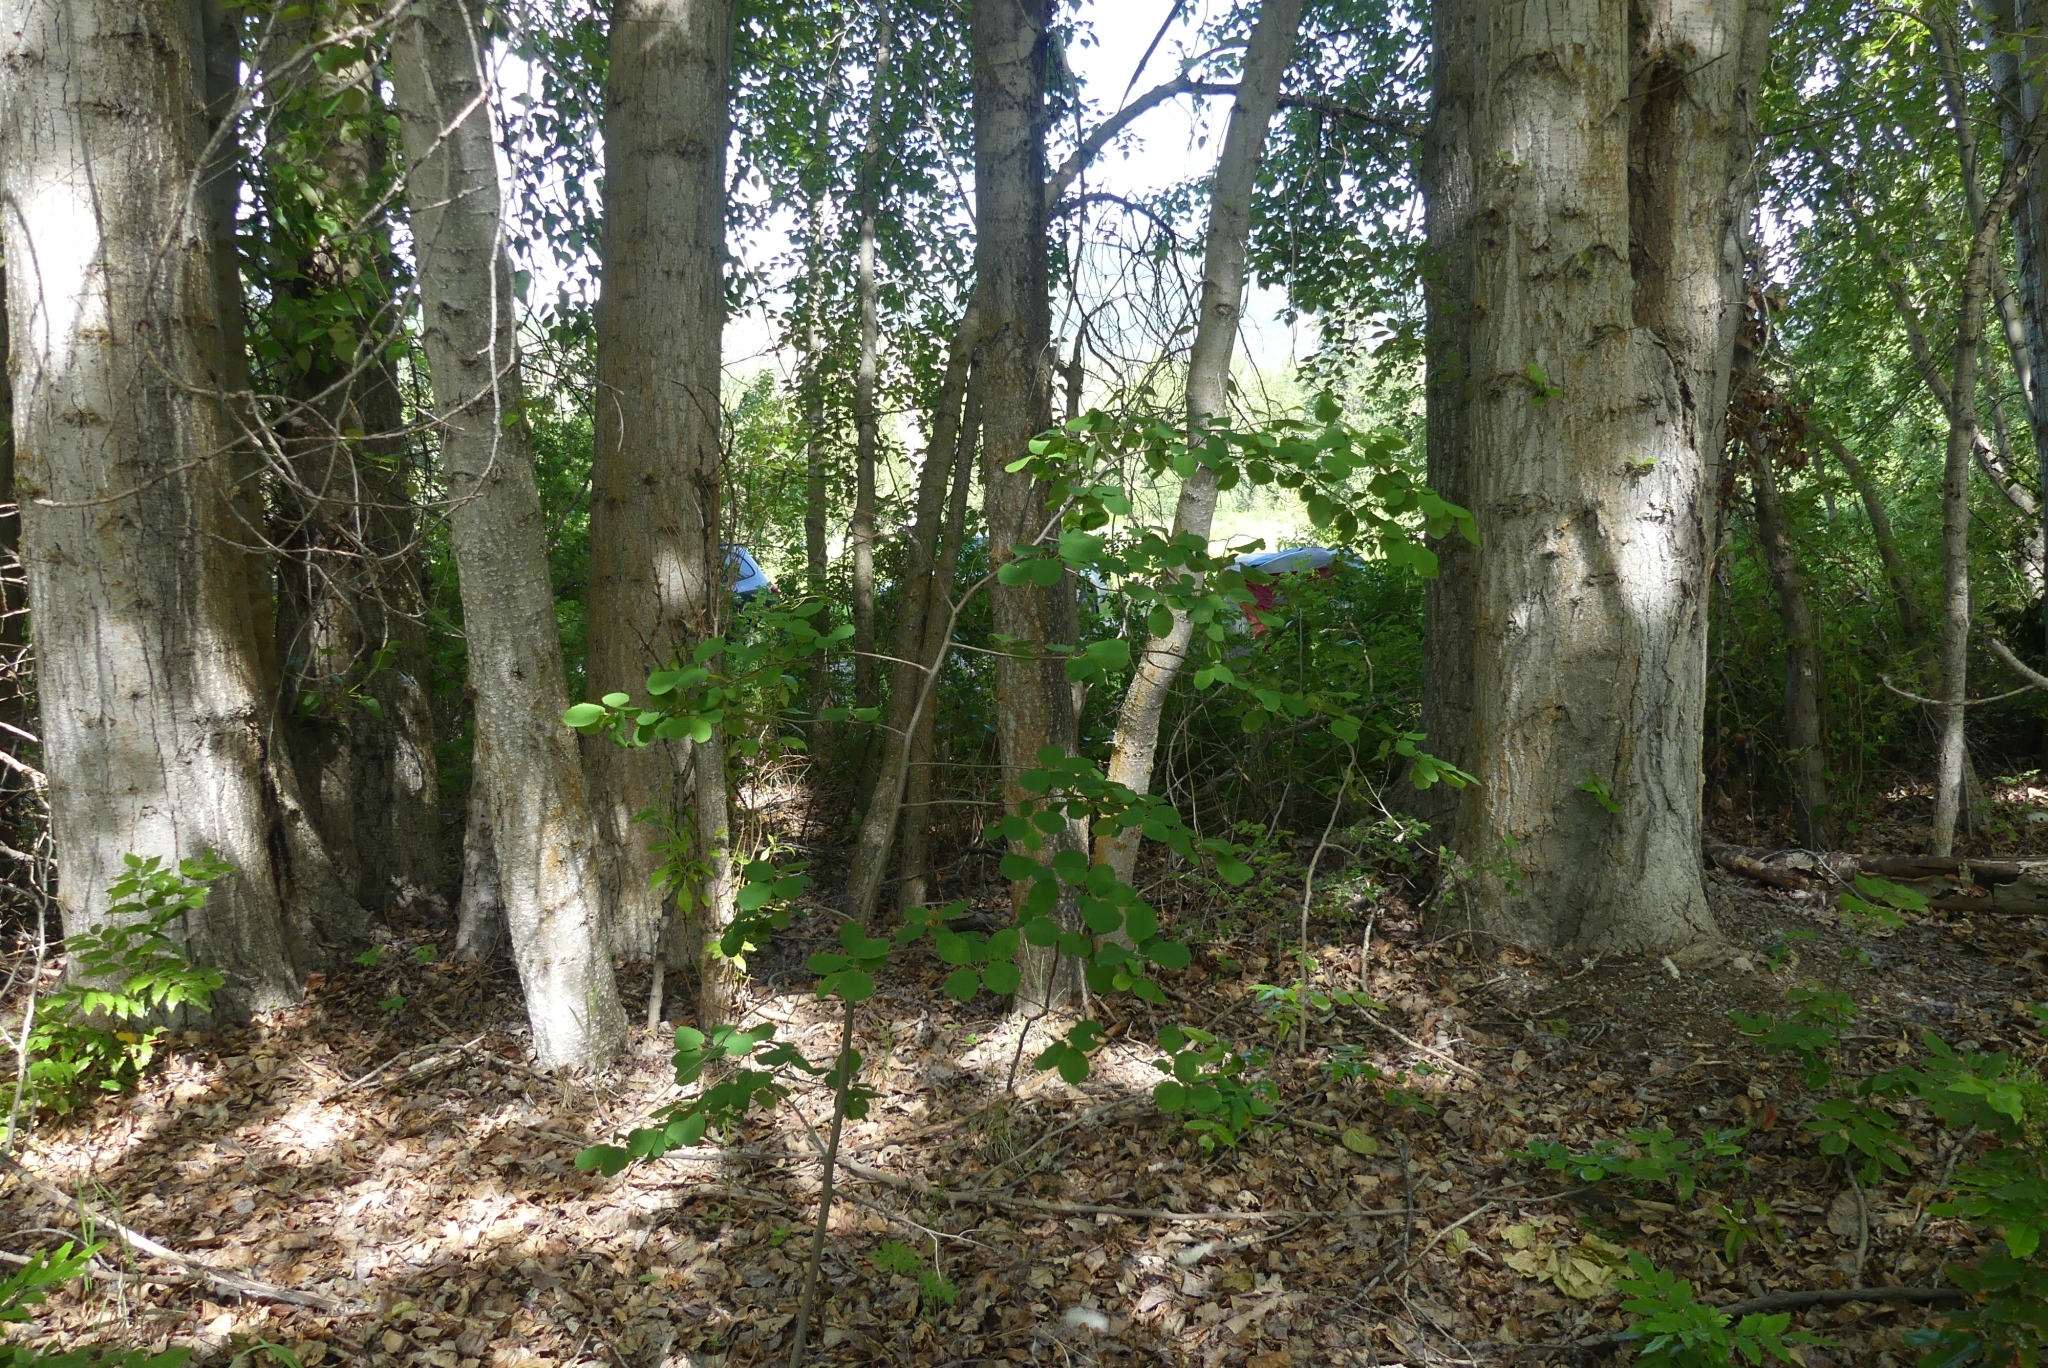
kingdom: Plantae
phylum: Tracheophyta
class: Magnoliopsida
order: Rosales
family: Rosaceae
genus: Amelanchier
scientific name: Amelanchier alnifolia
